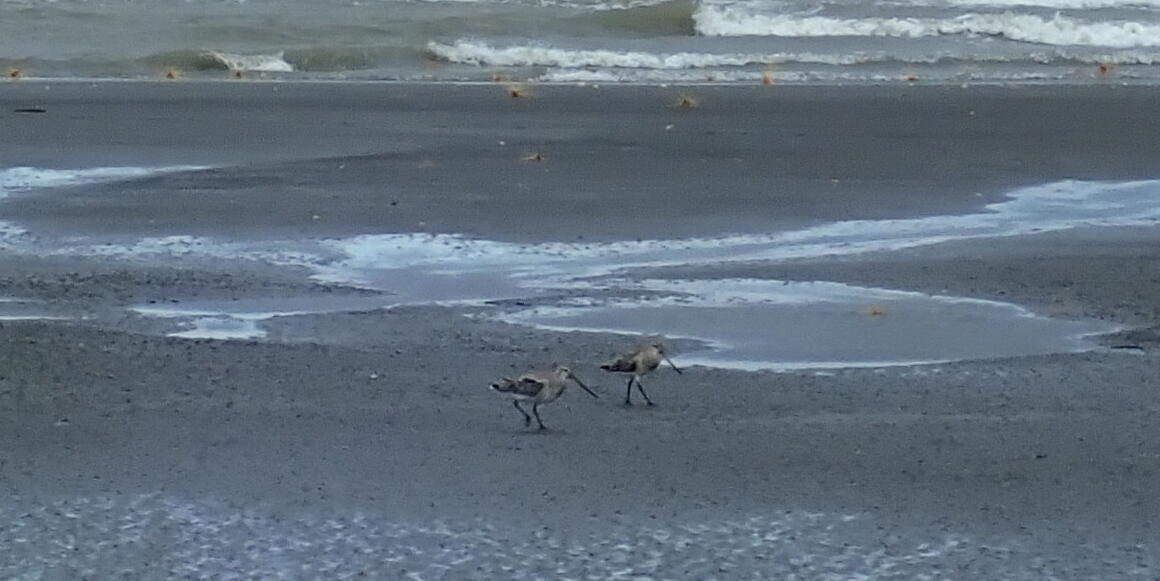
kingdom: Animalia
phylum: Chordata
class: Aves
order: Charadriiformes
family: Scolopacidae
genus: Limosa
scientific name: Limosa lapponica
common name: Bar-tailed godwit
